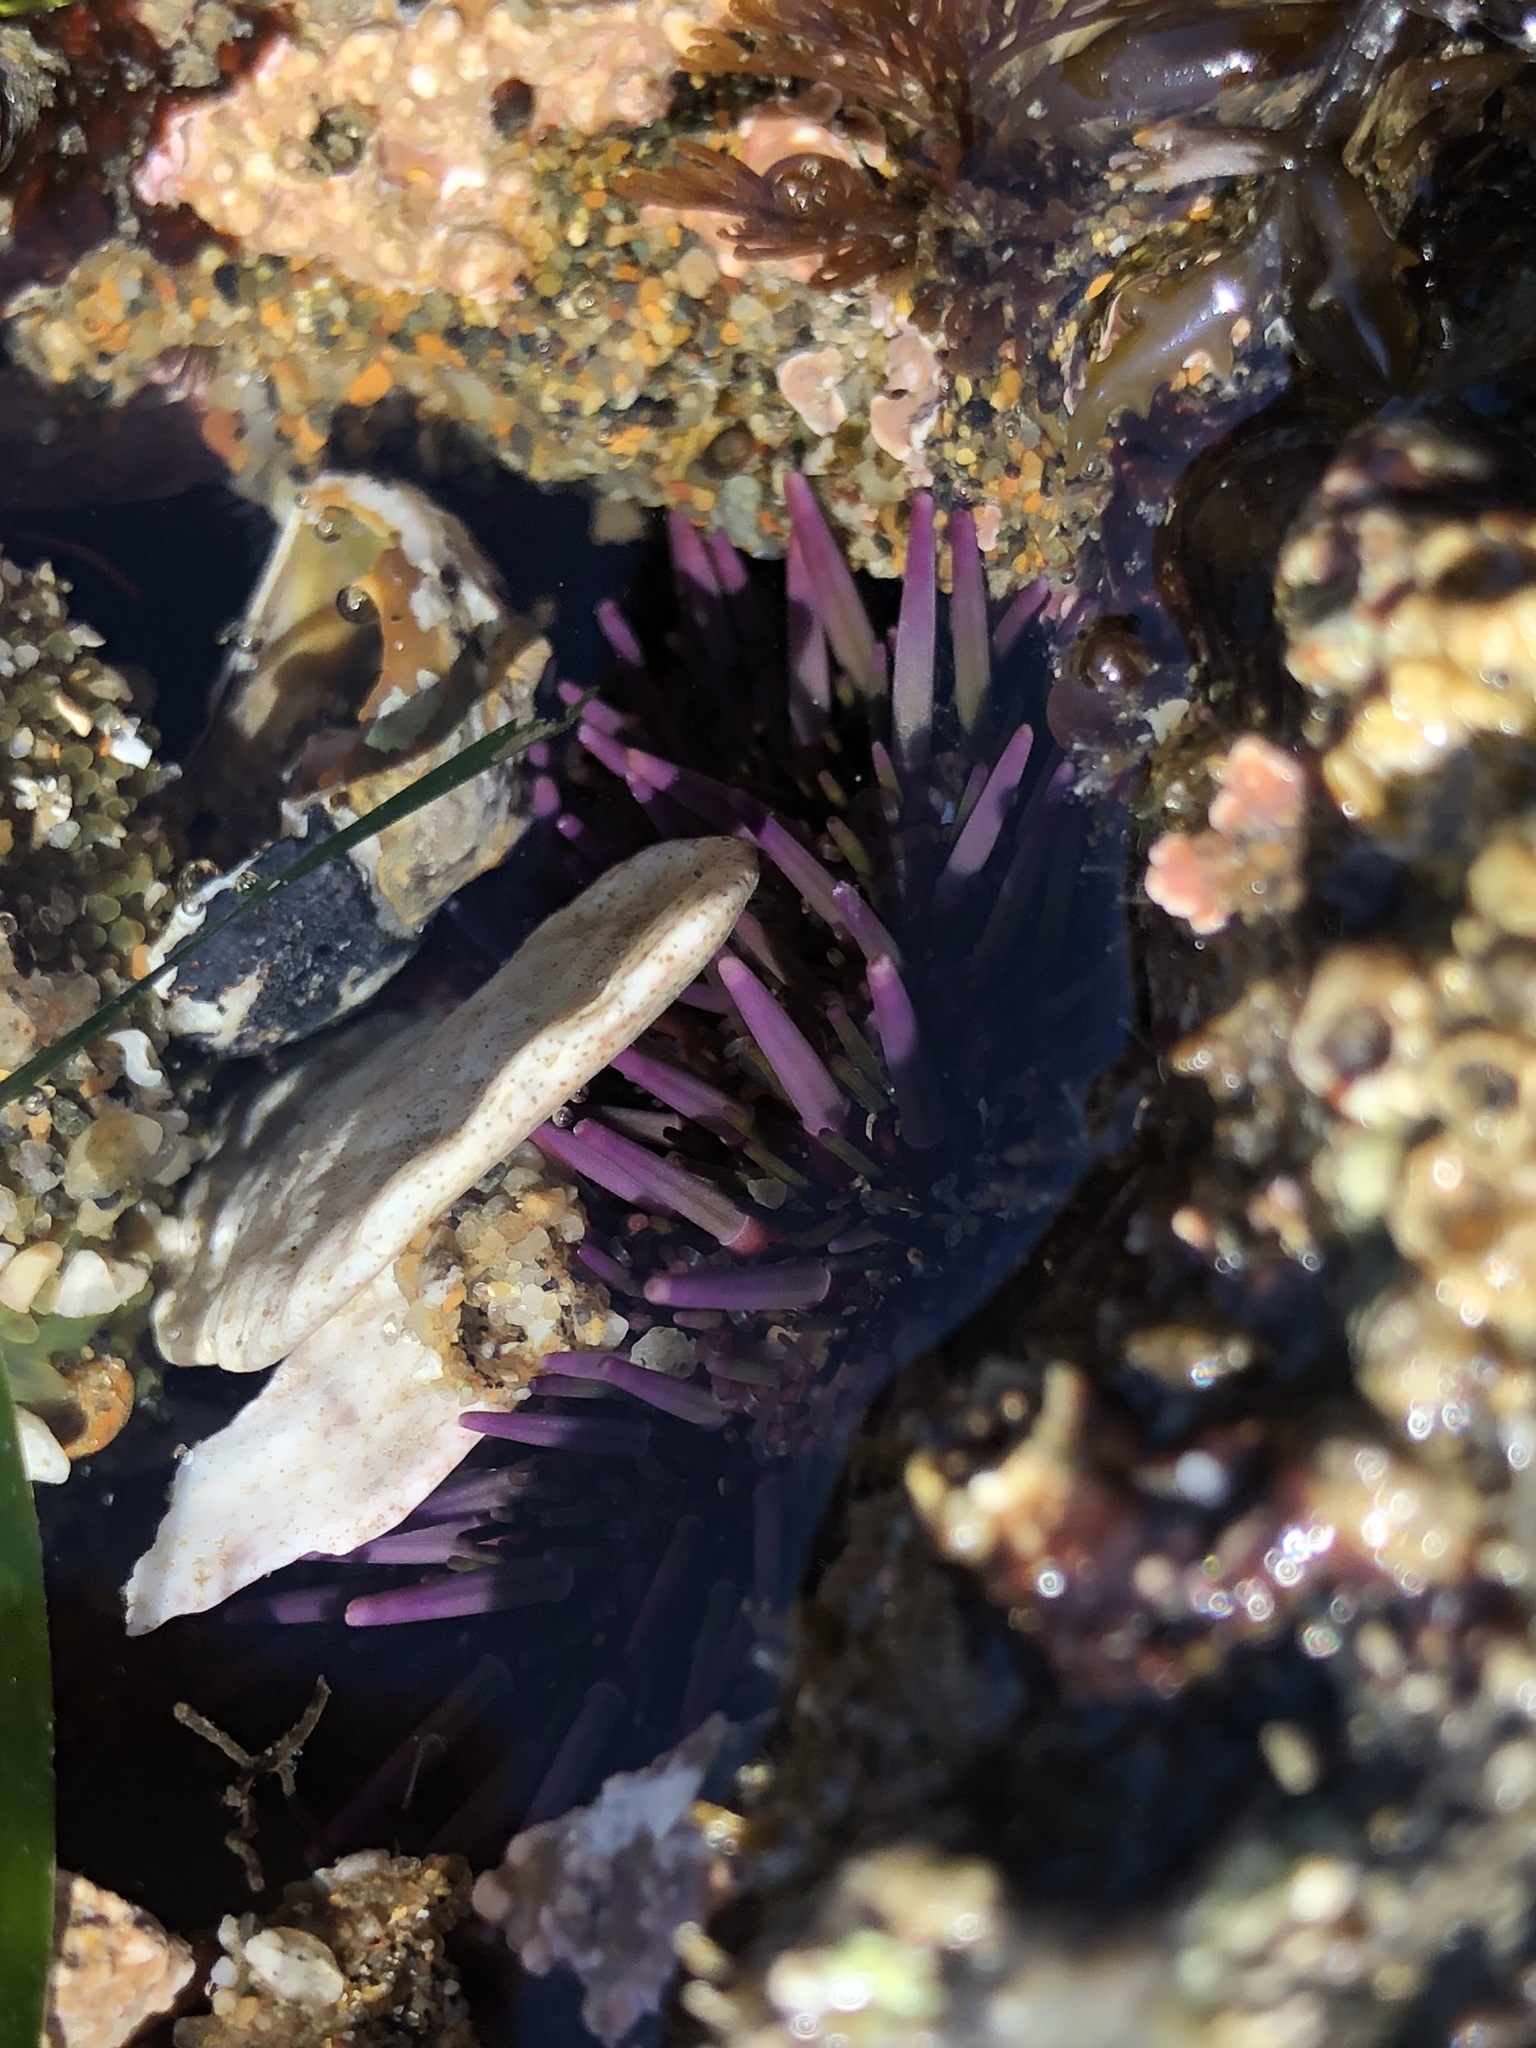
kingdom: Animalia
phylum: Echinodermata
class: Echinoidea
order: Camarodonta
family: Strongylocentrotidae
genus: Strongylocentrotus
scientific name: Strongylocentrotus purpuratus
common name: Purple sea urchin
